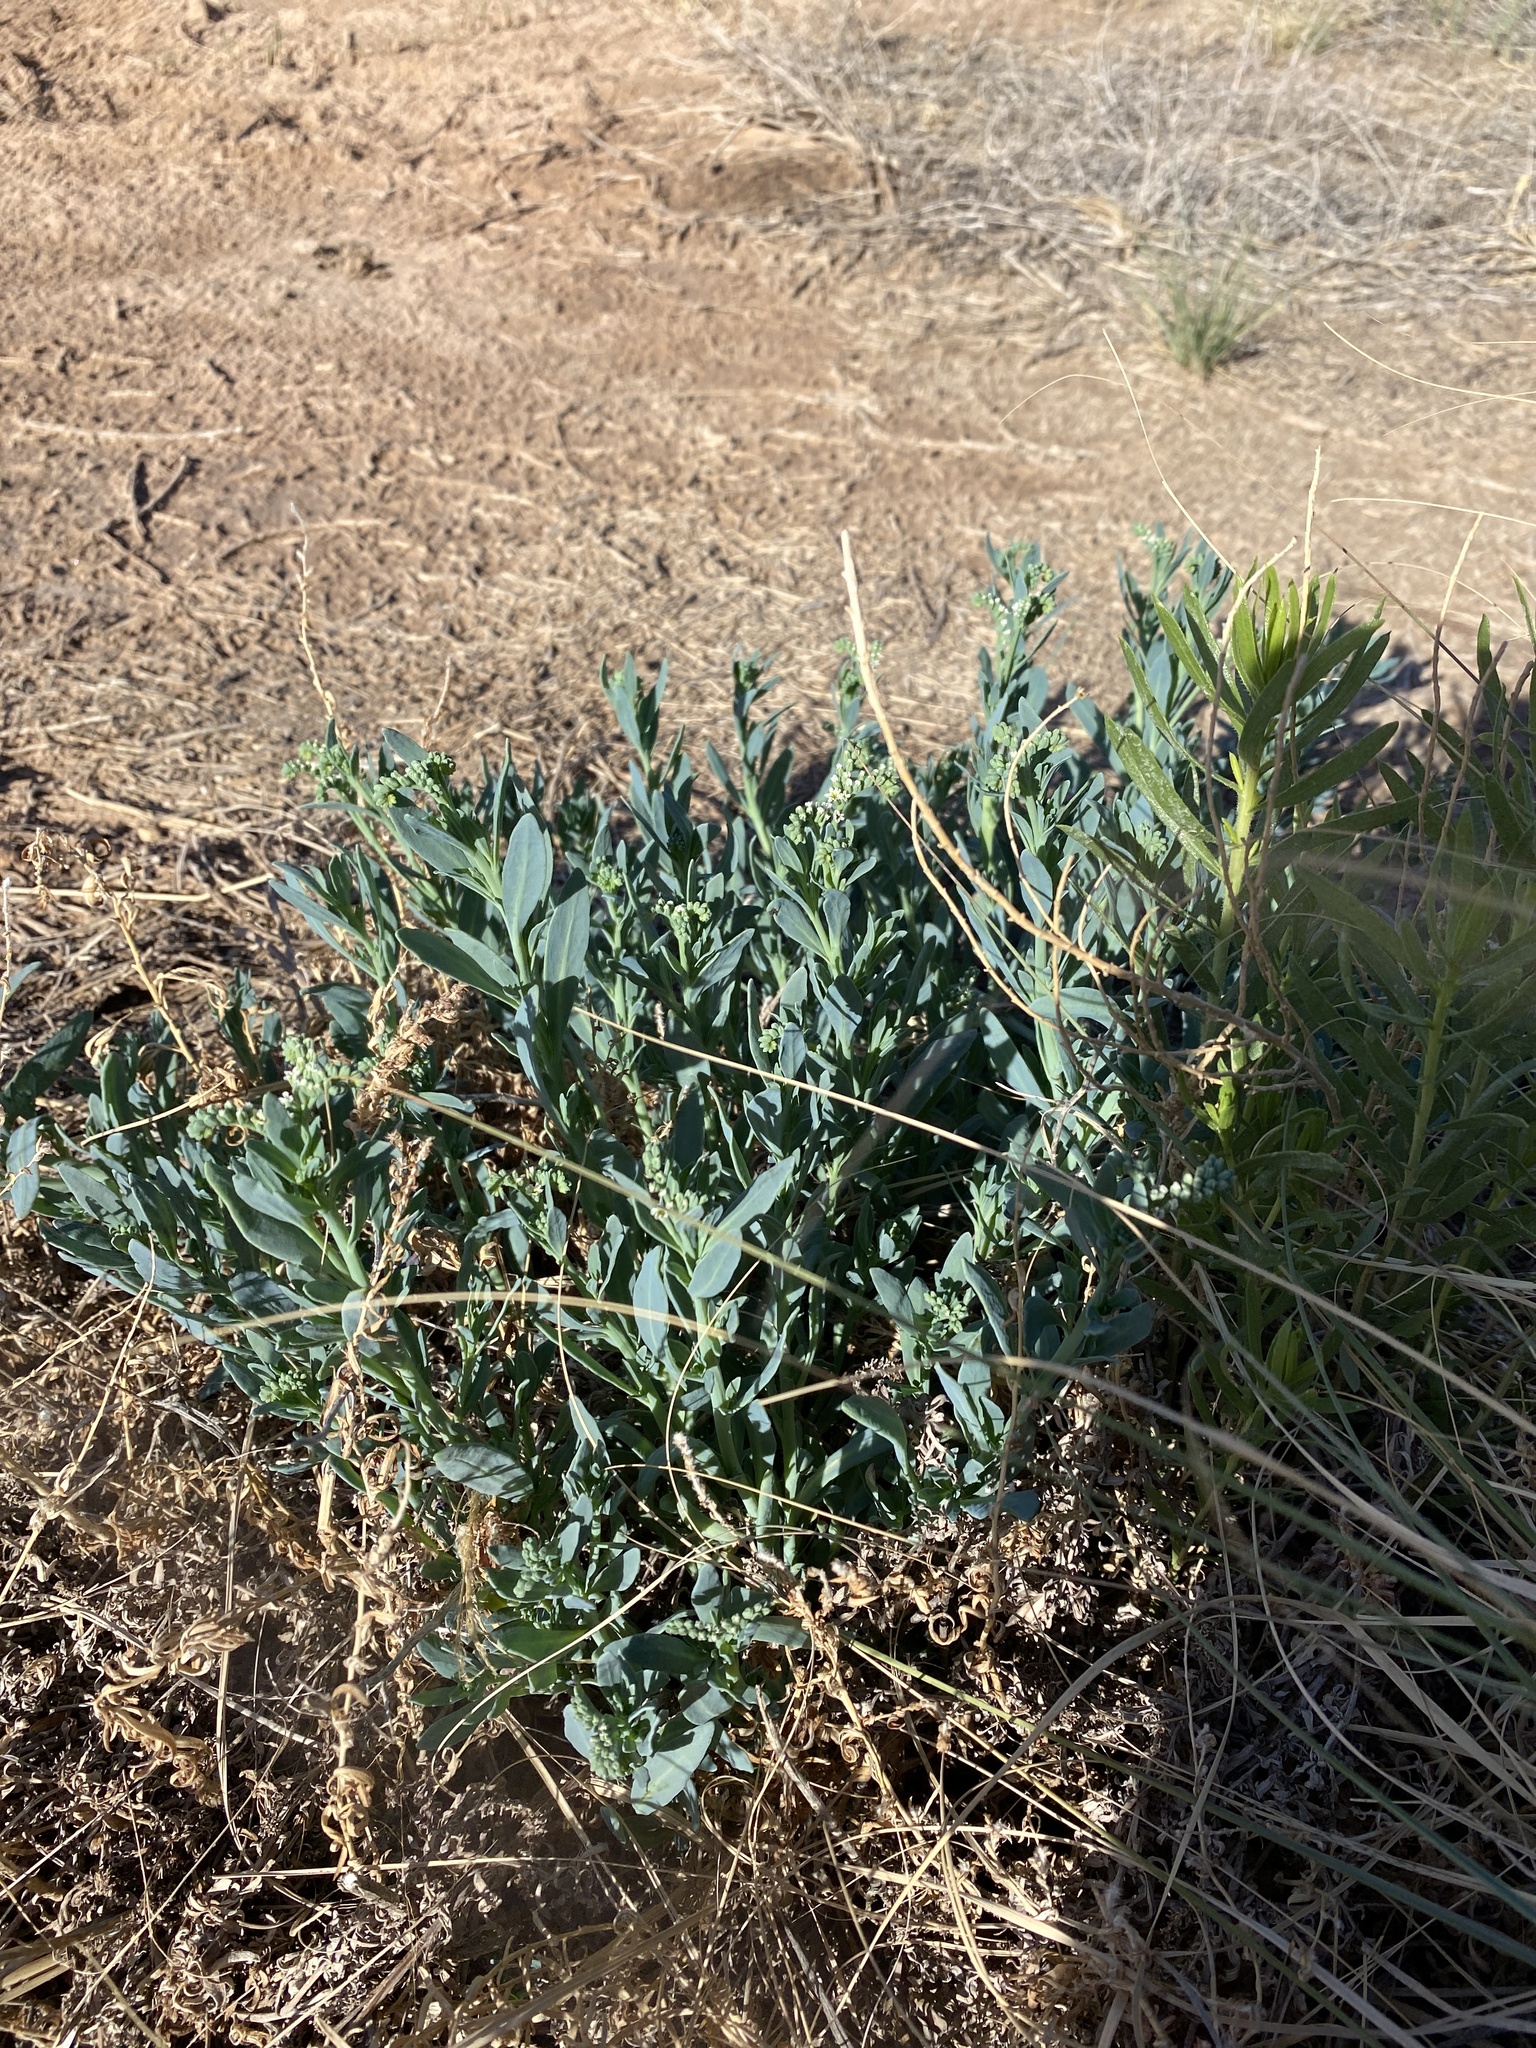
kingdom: Plantae
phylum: Tracheophyta
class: Magnoliopsida
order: Boraginales
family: Heliotropiaceae
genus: Heliotropium
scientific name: Heliotropium curassavicum
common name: Seaside heliotrope
